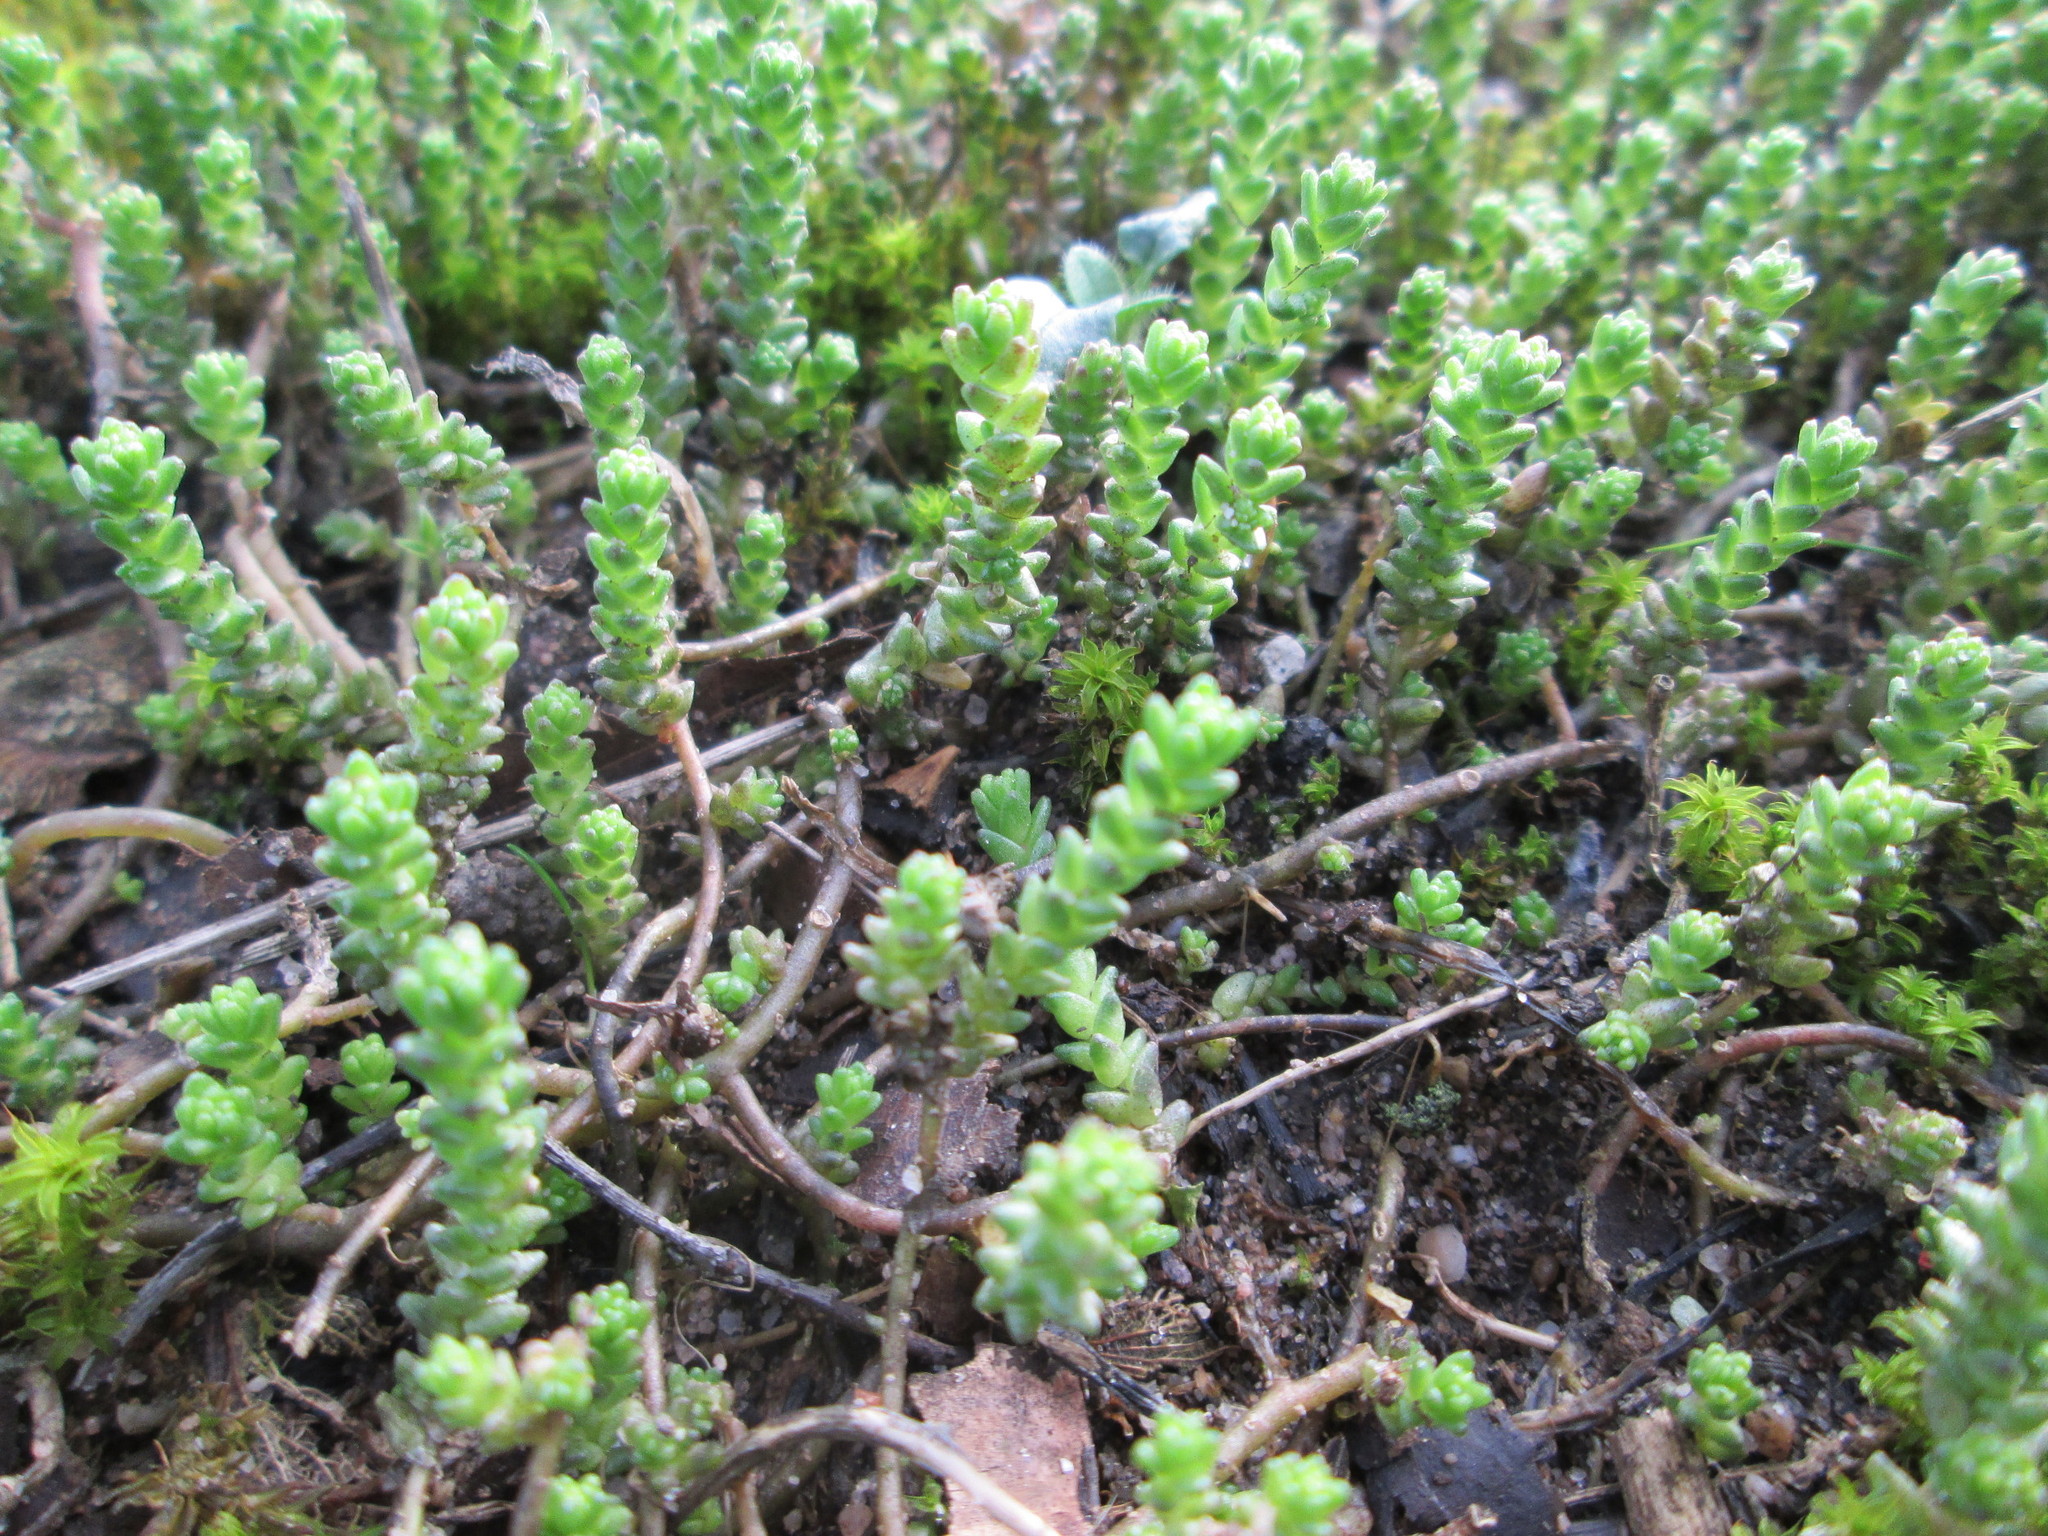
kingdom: Plantae
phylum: Tracheophyta
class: Magnoliopsida
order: Saxifragales
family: Crassulaceae
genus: Sedum
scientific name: Sedum acre
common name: Biting stonecrop
